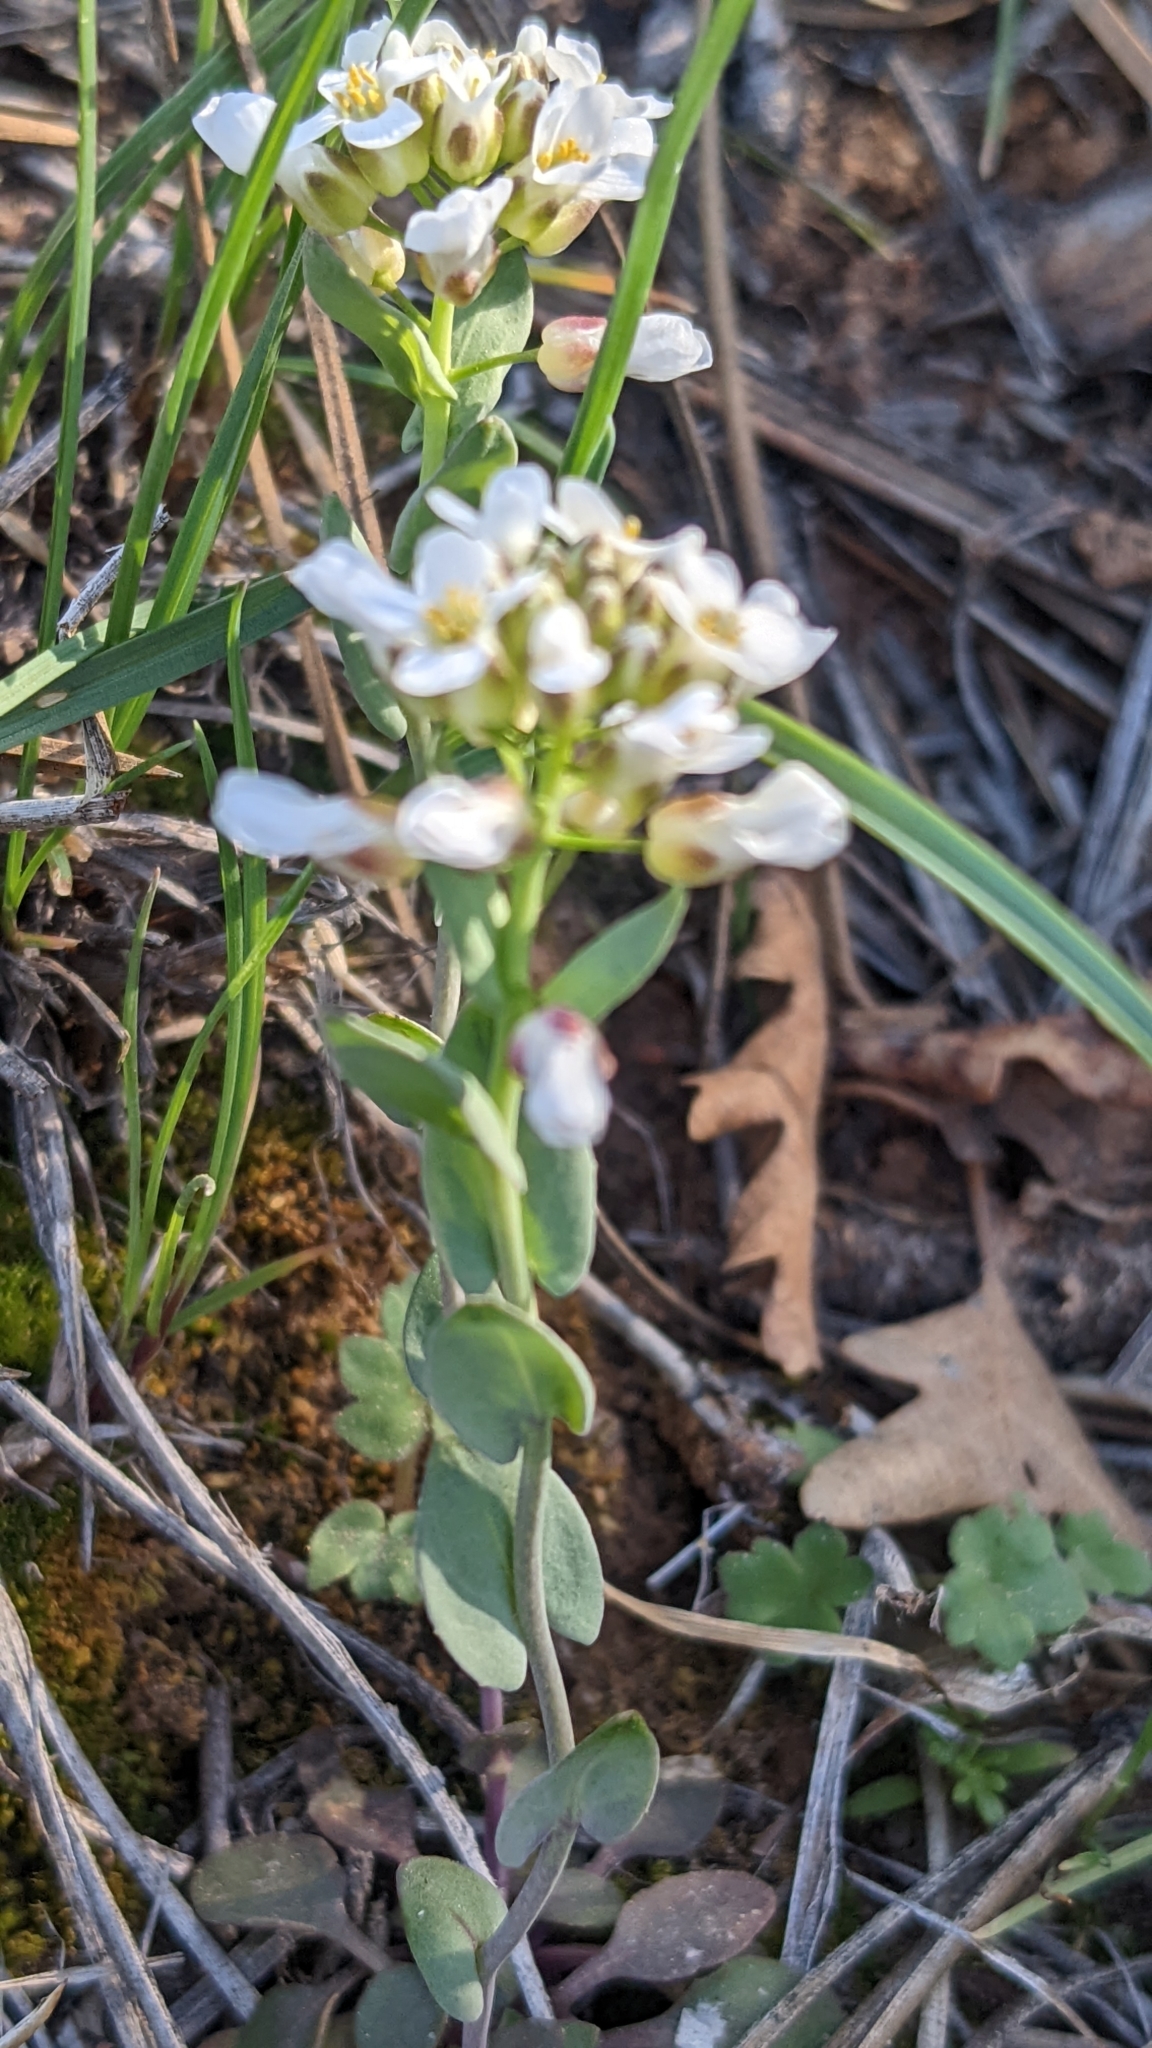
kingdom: Plantae
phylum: Tracheophyta
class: Magnoliopsida
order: Brassicales
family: Brassicaceae
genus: Noccaea
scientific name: Noccaea fendleri
